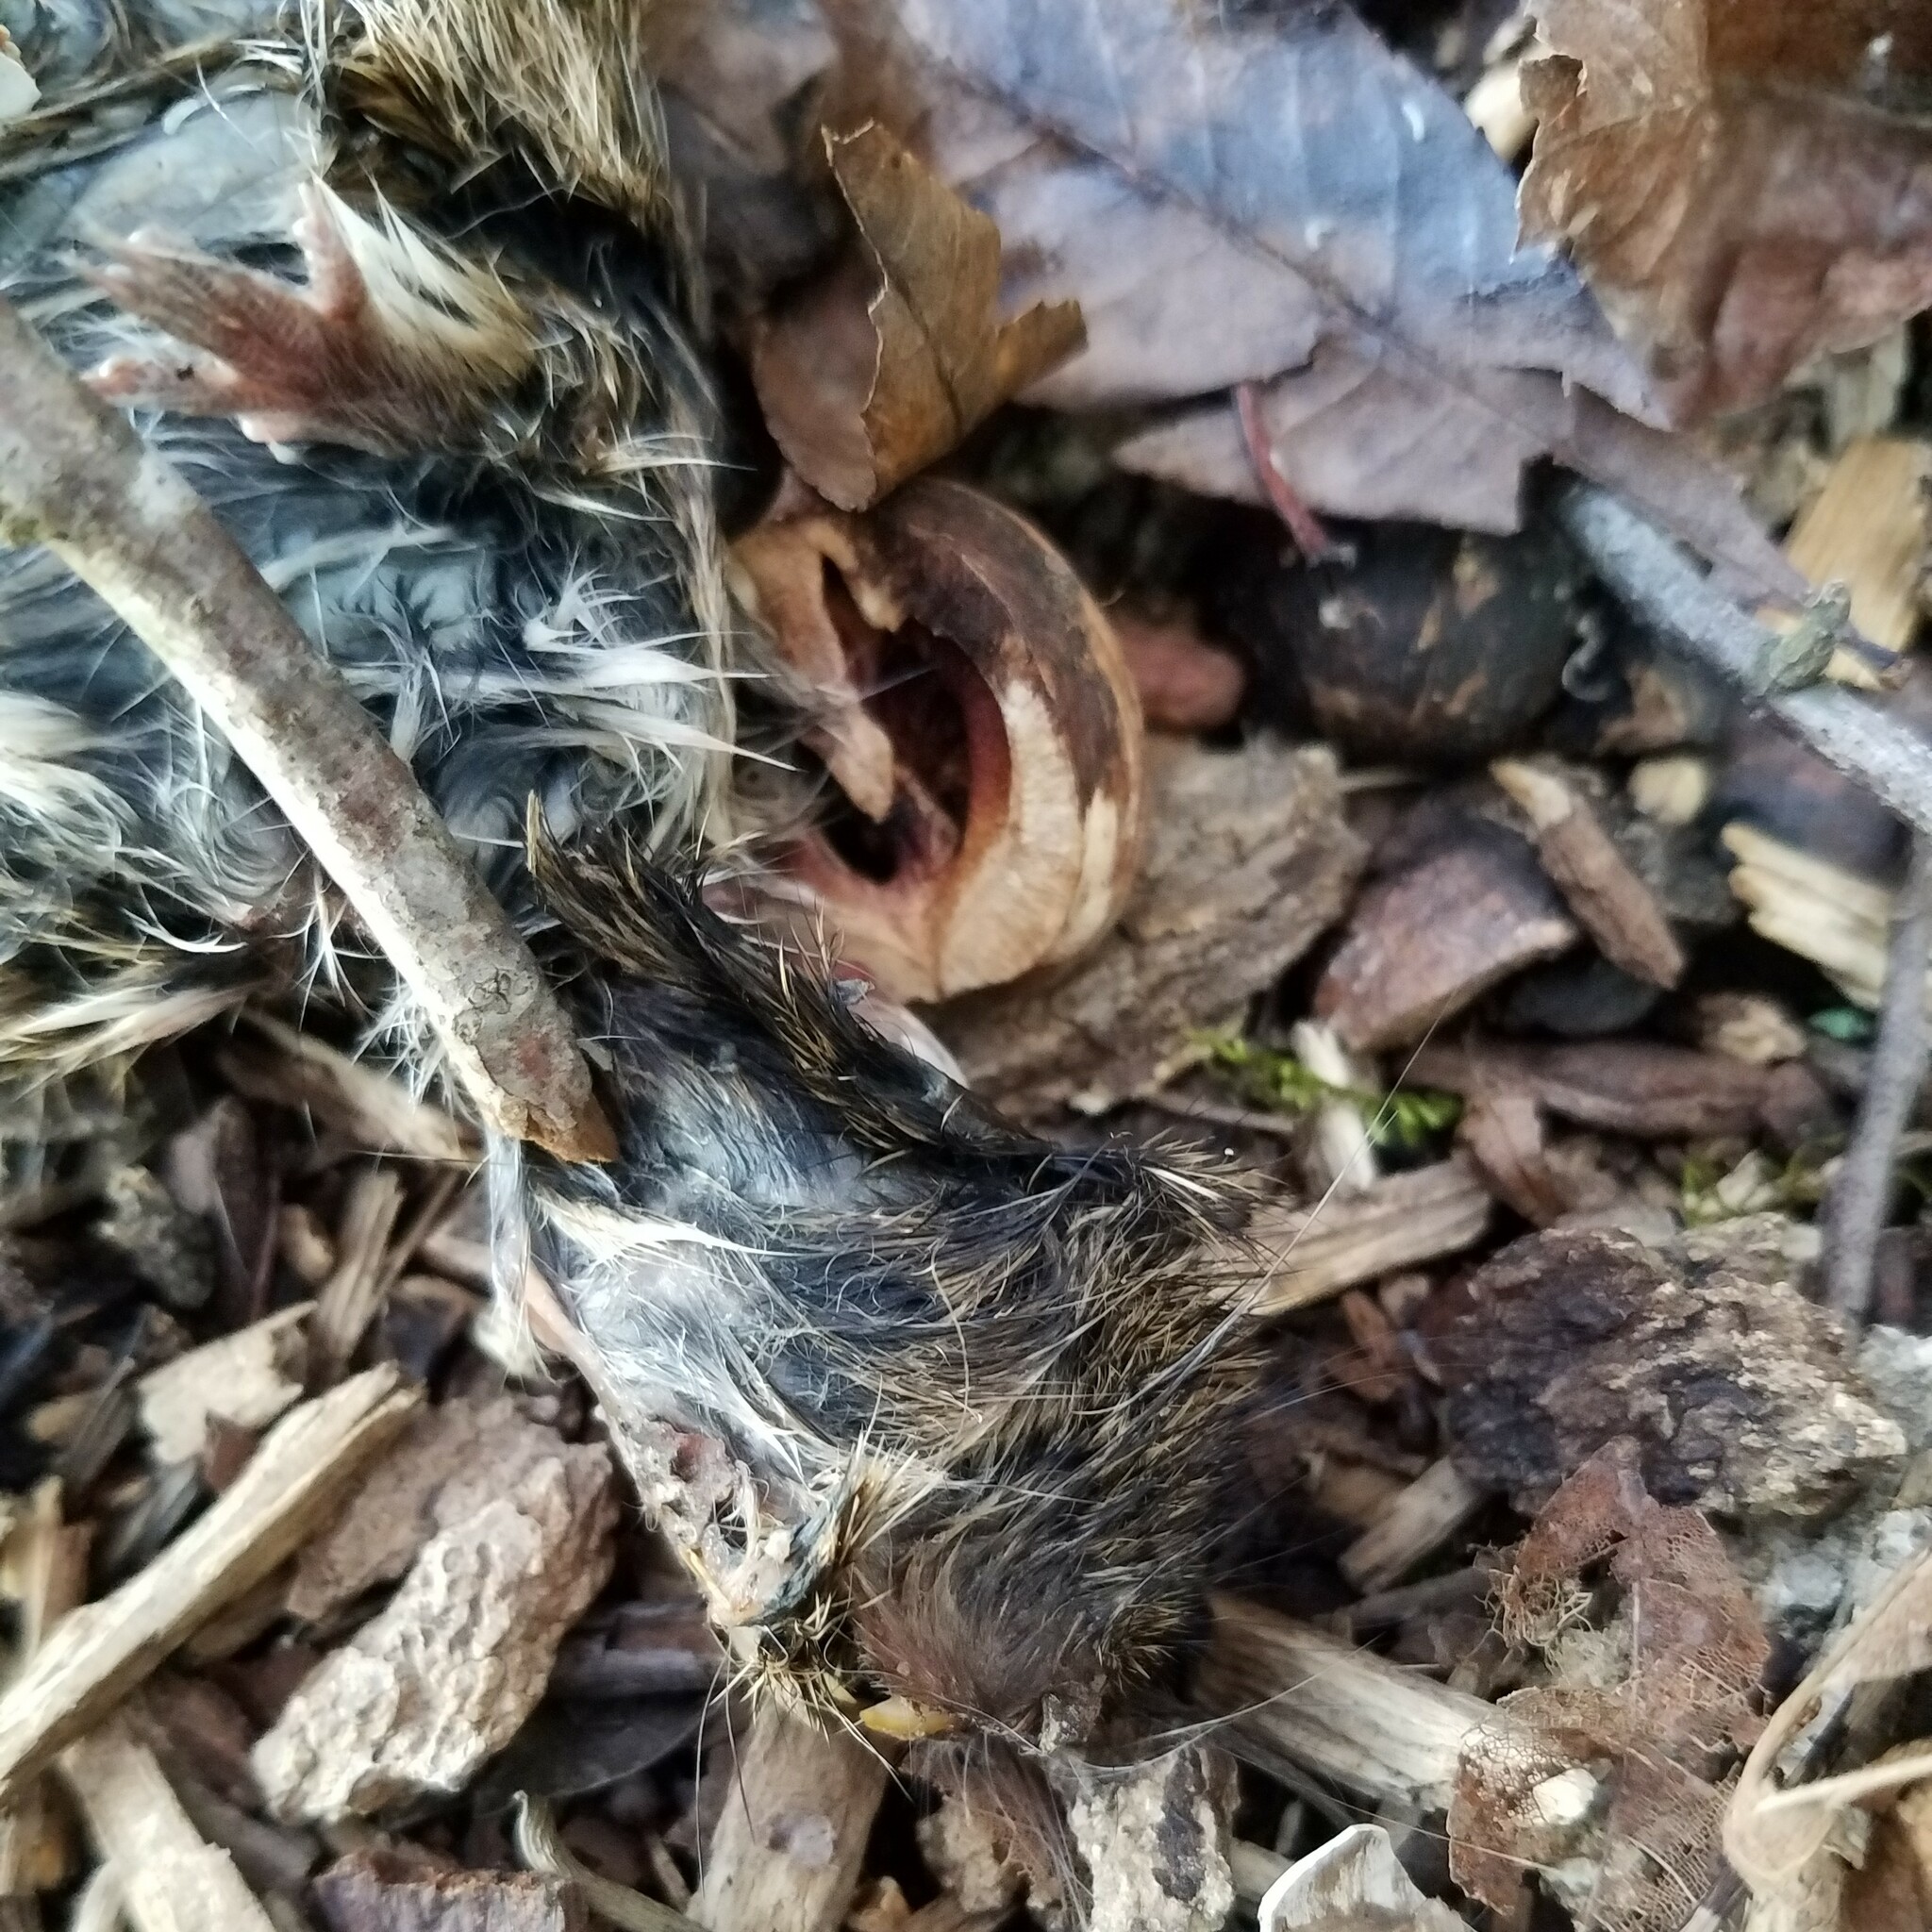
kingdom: Animalia
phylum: Chordata
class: Mammalia
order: Rodentia
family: Cricetidae
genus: Sigmodon
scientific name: Sigmodon hispidus
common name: Hispid cotton rat
